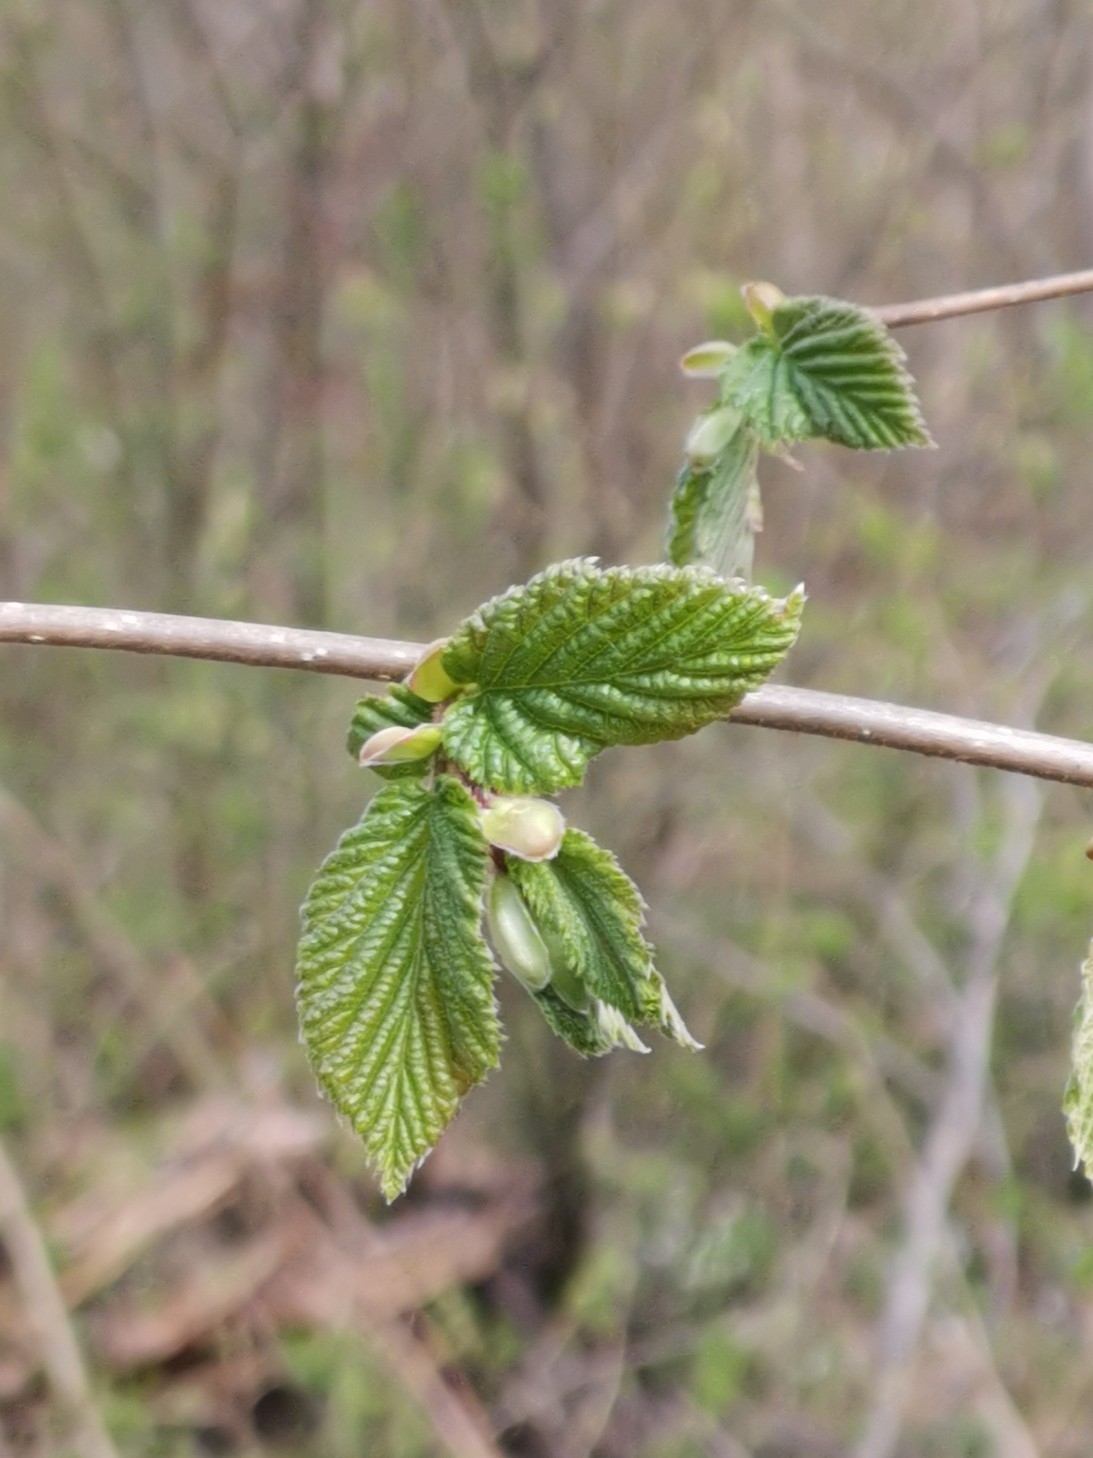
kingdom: Plantae
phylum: Tracheophyta
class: Magnoliopsida
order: Fagales
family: Betulaceae
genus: Corylus
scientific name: Corylus avellana
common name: European hazel
